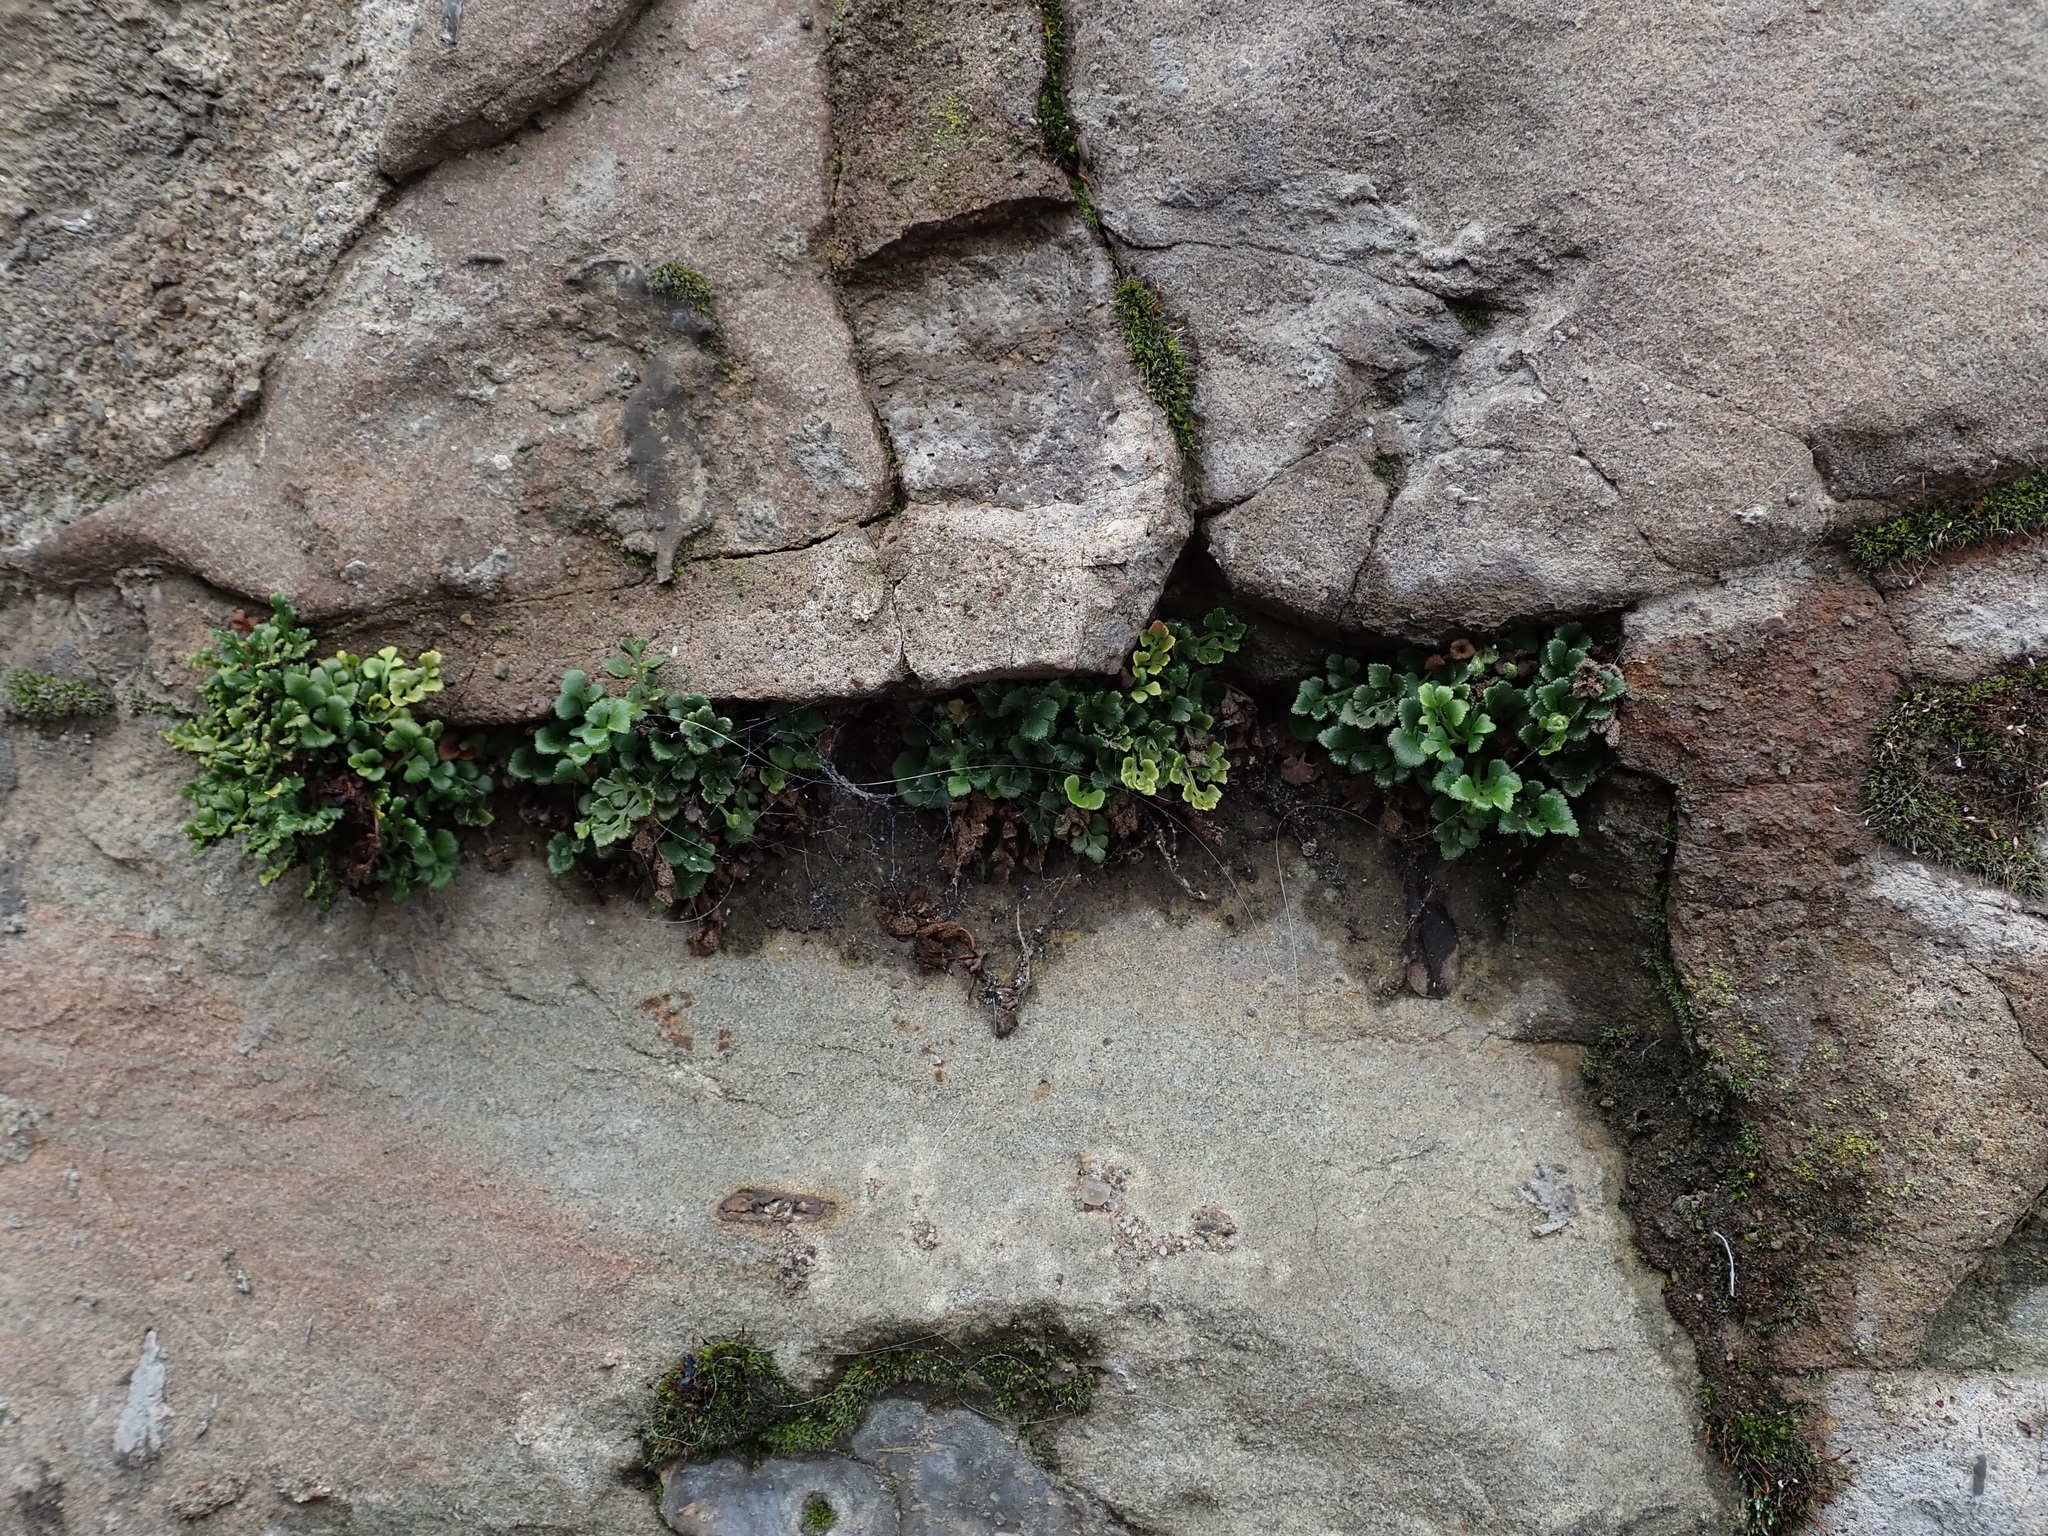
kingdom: Plantae
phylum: Tracheophyta
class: Polypodiopsida
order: Polypodiales
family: Aspleniaceae
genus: Asplenium
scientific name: Asplenium ruta-muraria
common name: Wall-rue
